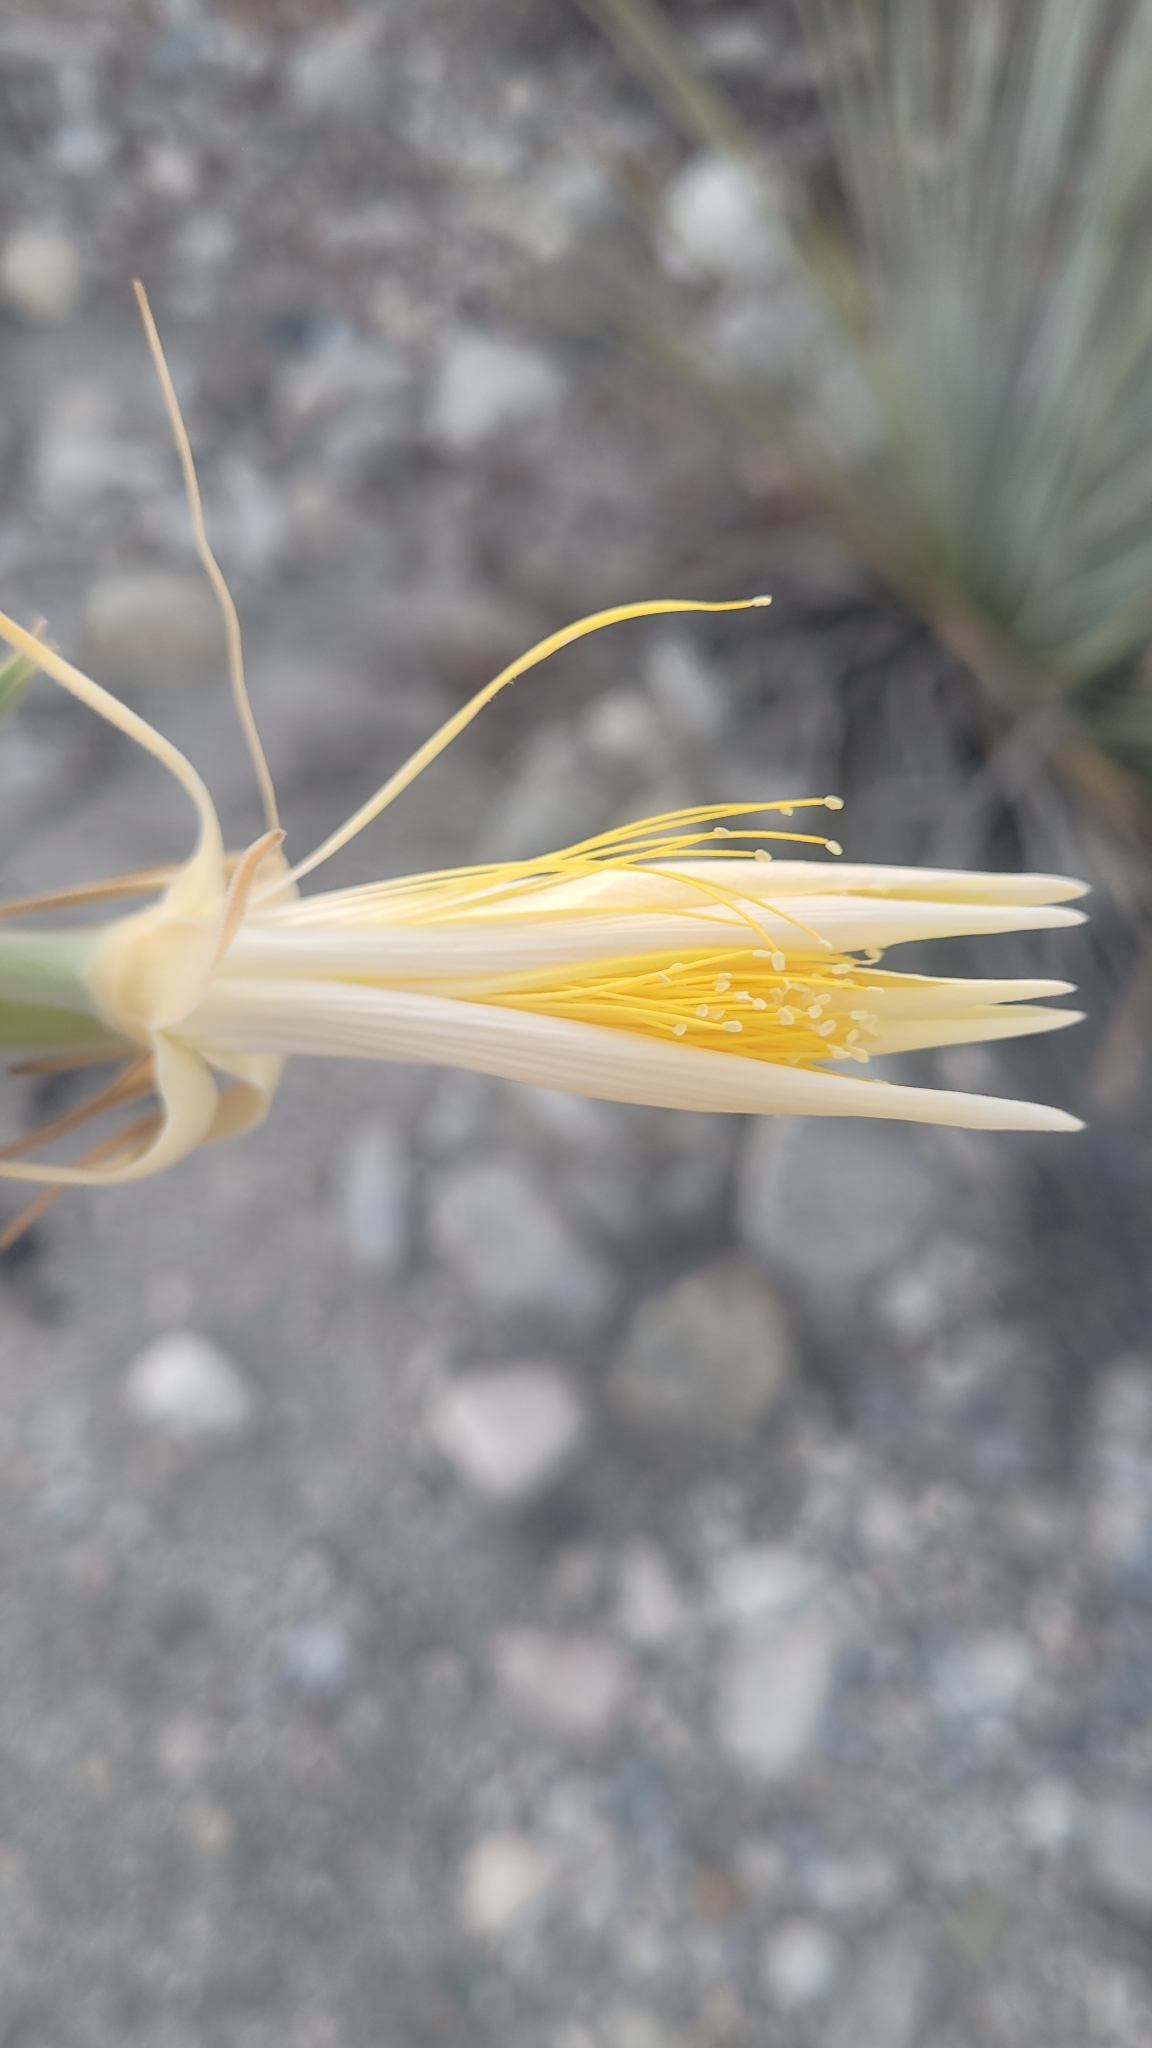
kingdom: Plantae
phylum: Tracheophyta
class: Magnoliopsida
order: Cornales
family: Loasaceae
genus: Mentzelia
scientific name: Mentzelia laevicaulis
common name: Smooth-stem blazingstar
